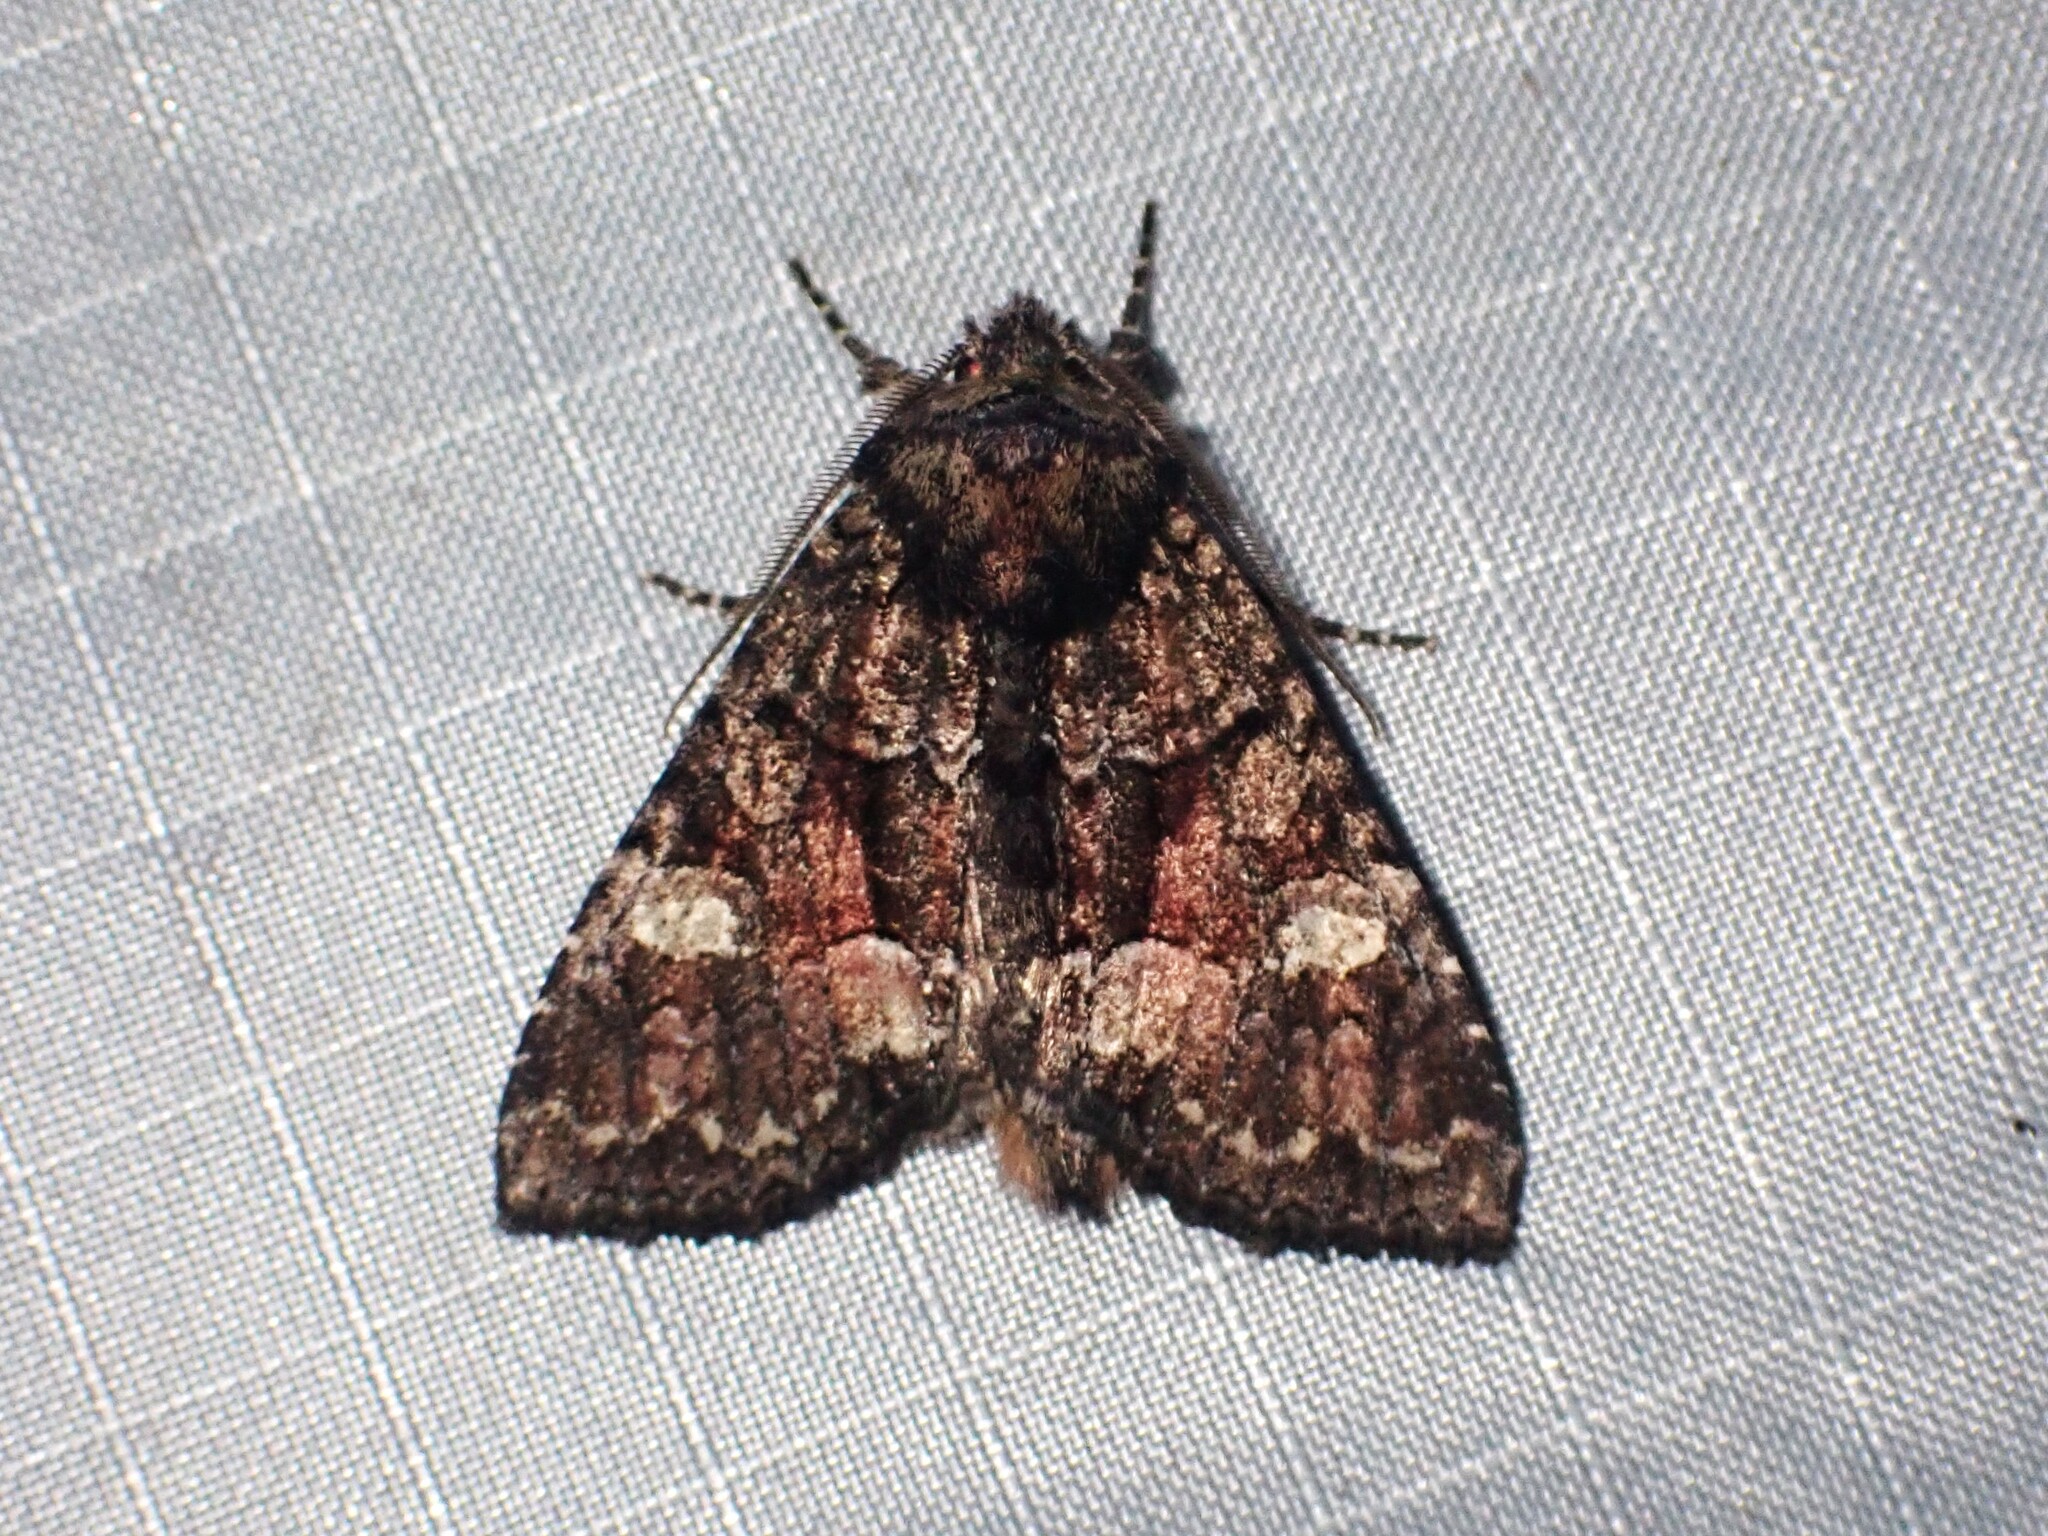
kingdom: Animalia
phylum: Arthropoda
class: Insecta
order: Lepidoptera
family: Noctuidae
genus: Fishia
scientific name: Fishia illocata
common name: Wandering brocade moth
